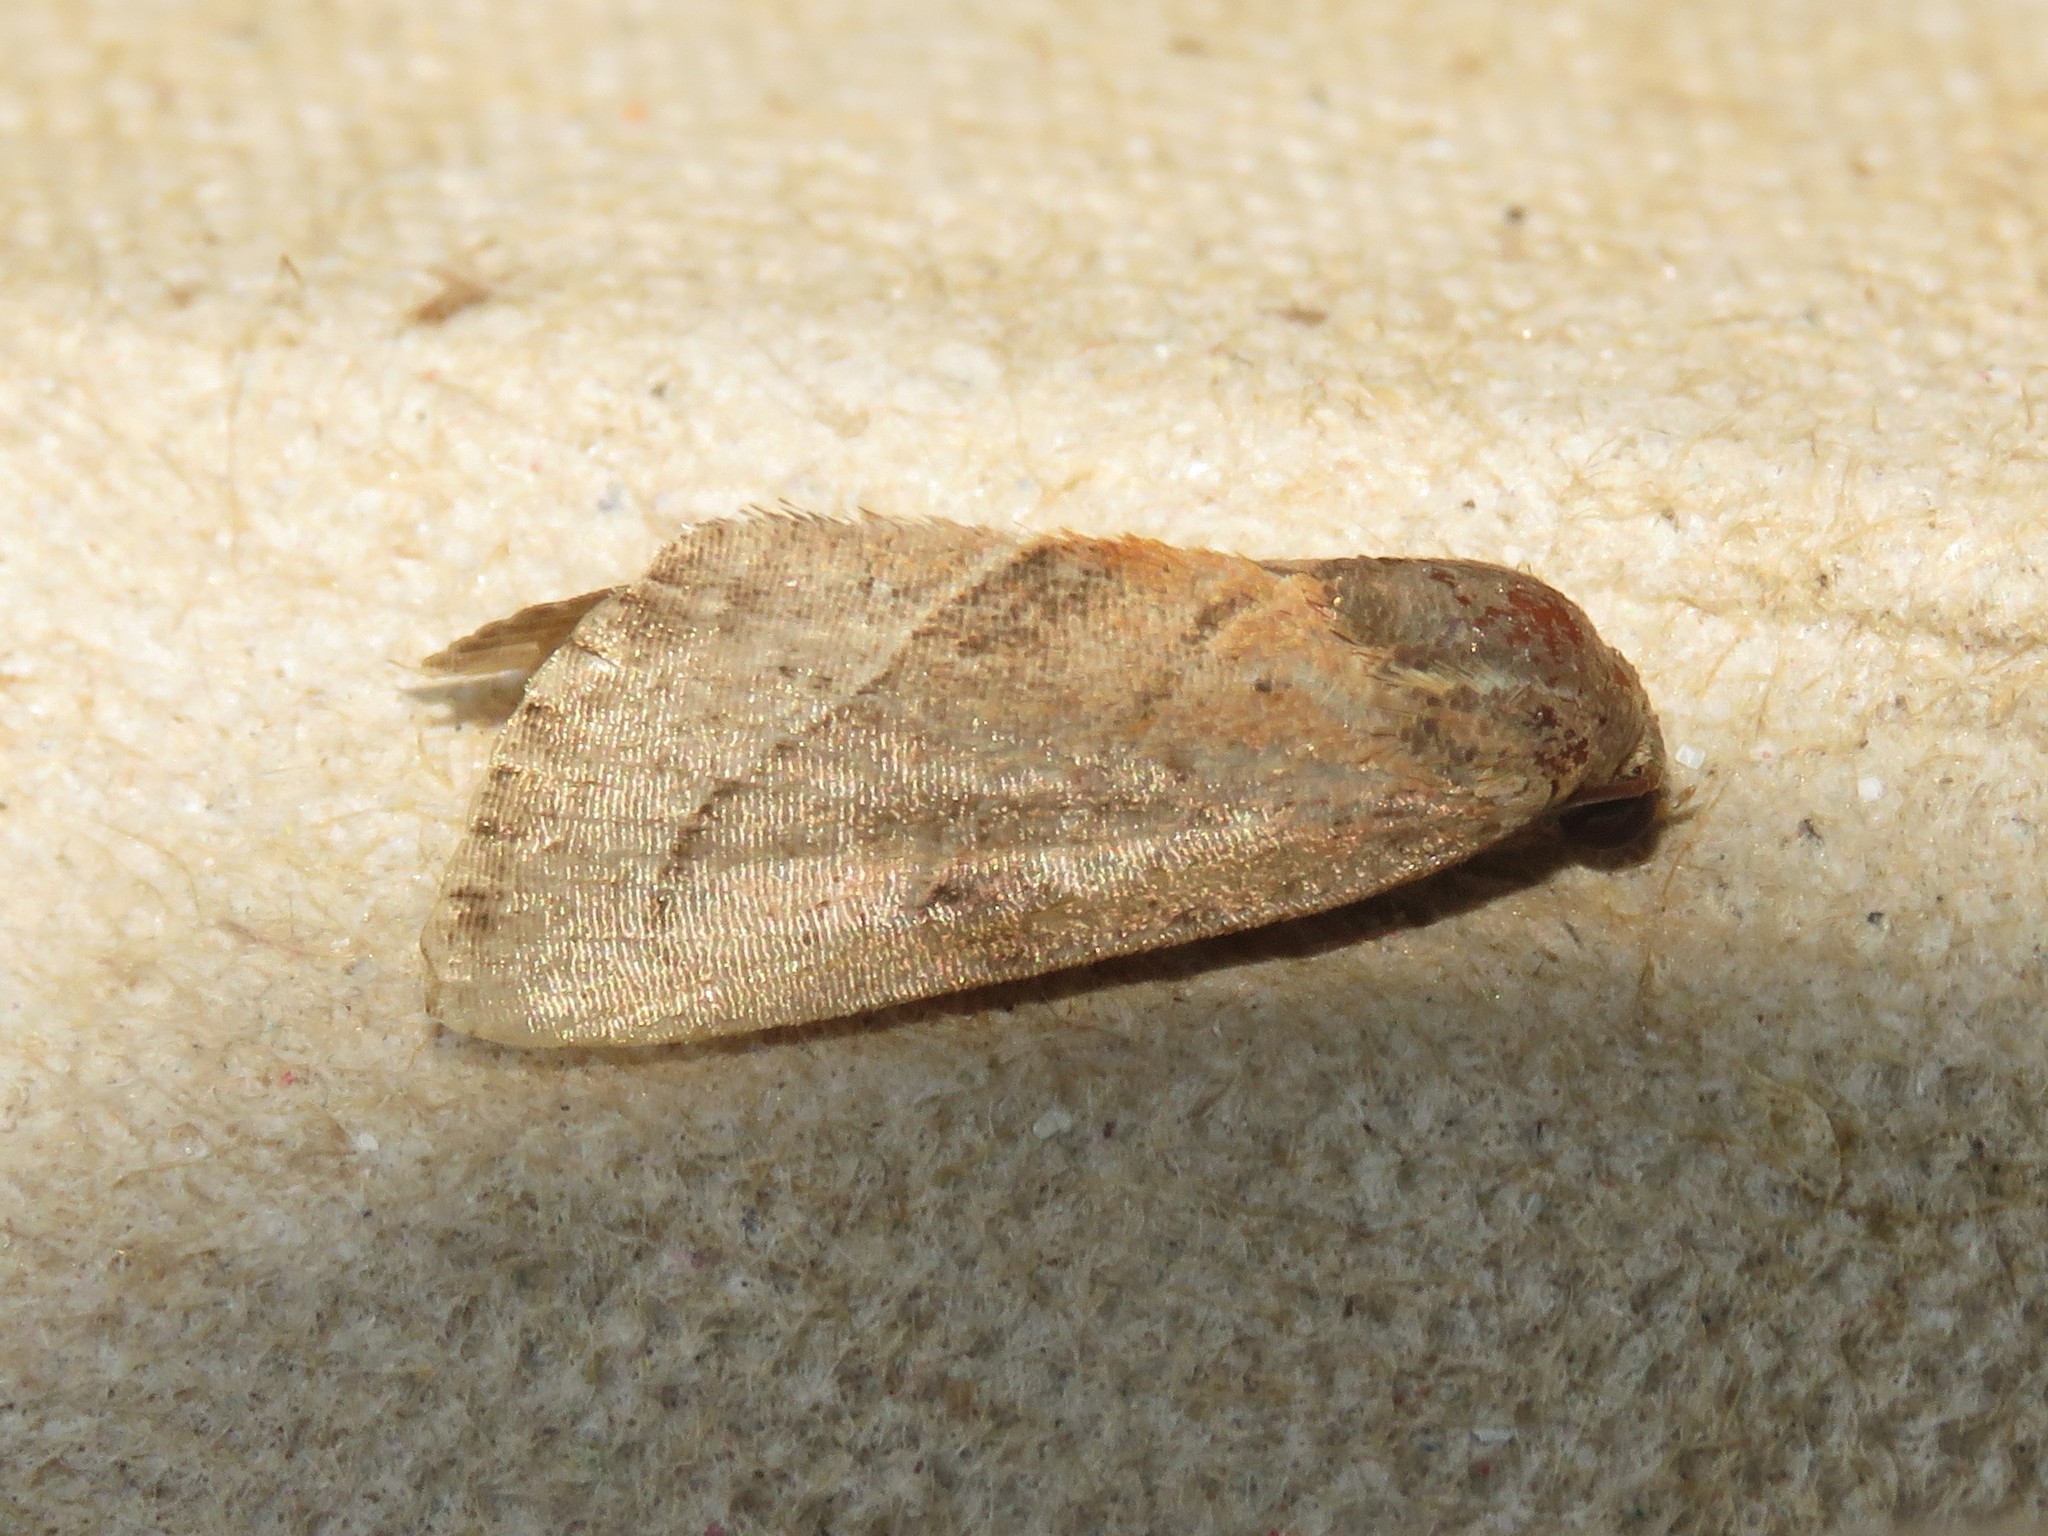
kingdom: Animalia
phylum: Arthropoda
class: Insecta
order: Lepidoptera
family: Noctuidae
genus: Galgula
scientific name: Galgula partita
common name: Wedgeling
